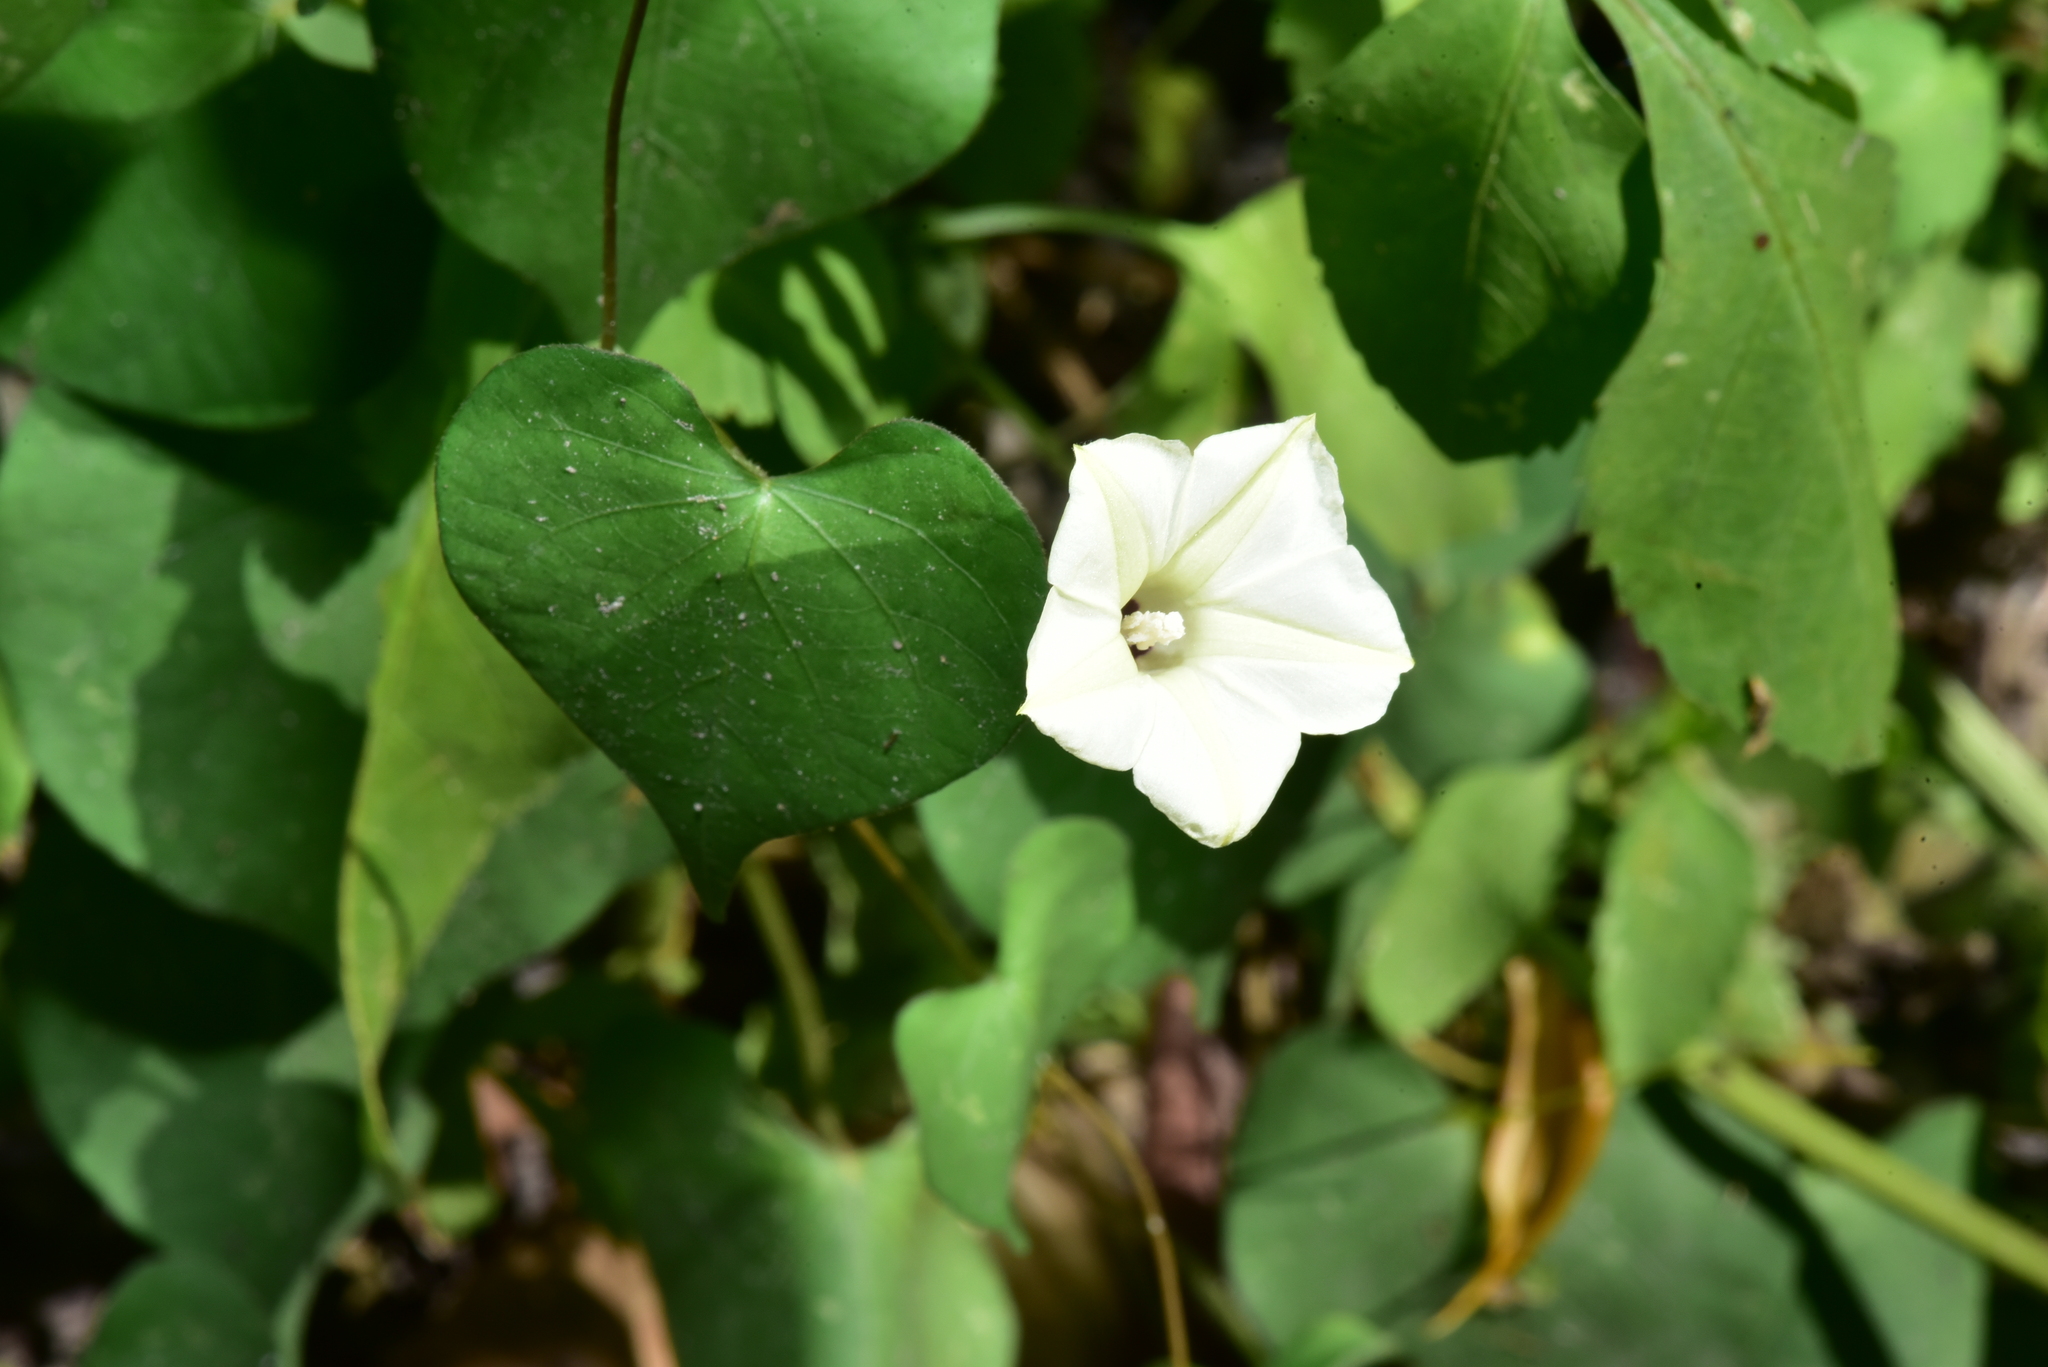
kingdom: Plantae
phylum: Tracheophyta
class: Magnoliopsida
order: Solanales
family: Convolvulaceae
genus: Ipomoea
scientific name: Ipomoea obscura
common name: Obscure morning-glory
